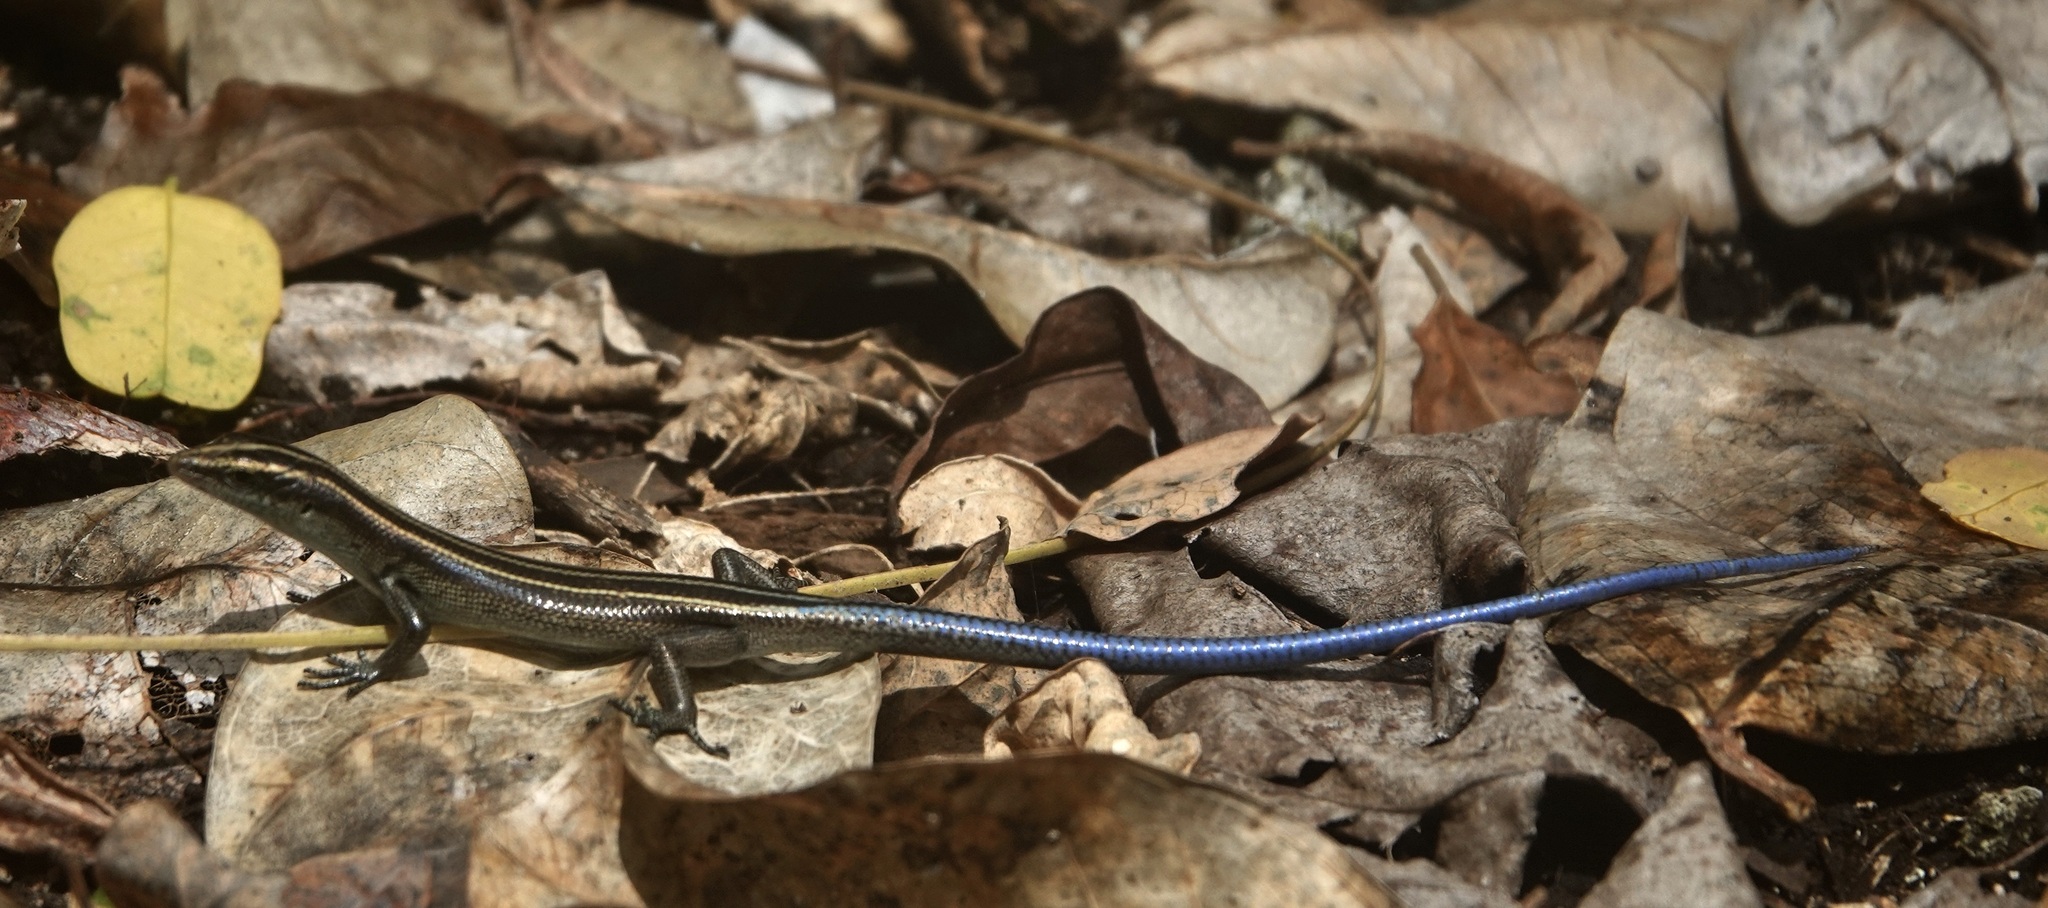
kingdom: Animalia
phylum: Chordata
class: Squamata
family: Scincidae
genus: Emoia
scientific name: Emoia caeruleocauda
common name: Pacific bluetail skink
